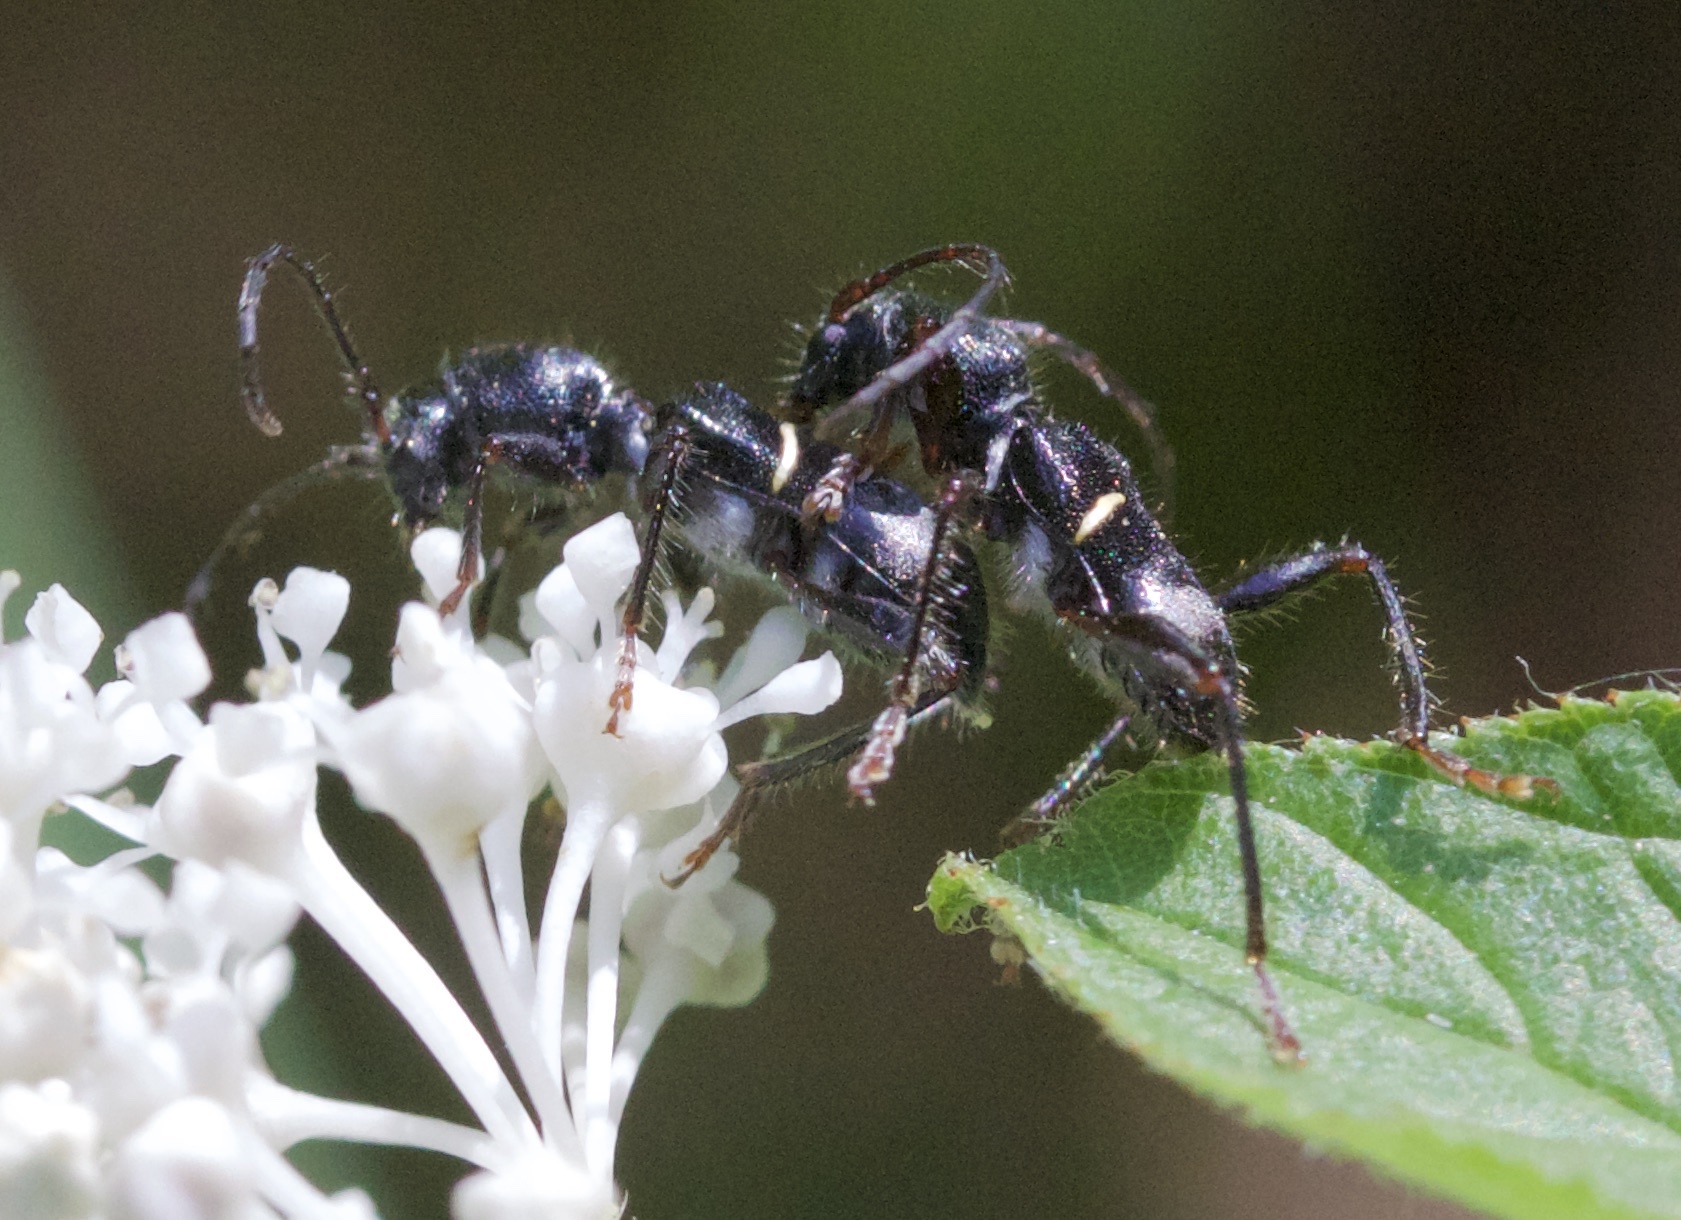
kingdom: Animalia
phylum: Arthropoda
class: Insecta
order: Coleoptera
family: Cerambycidae
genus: Euderces
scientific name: Euderces picipes
